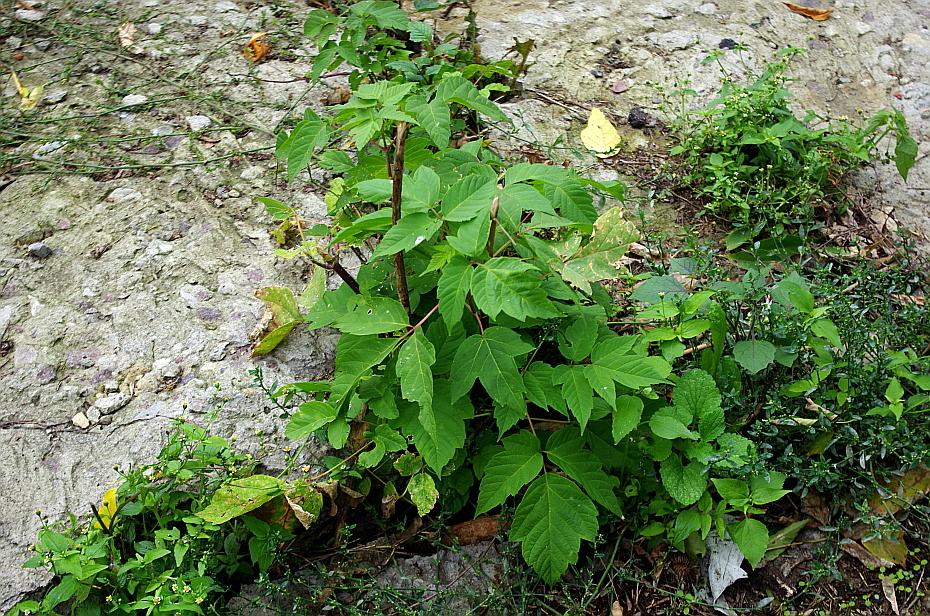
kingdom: Plantae
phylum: Tracheophyta
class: Magnoliopsida
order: Sapindales
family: Sapindaceae
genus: Acer
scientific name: Acer negundo
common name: Ashleaf maple
